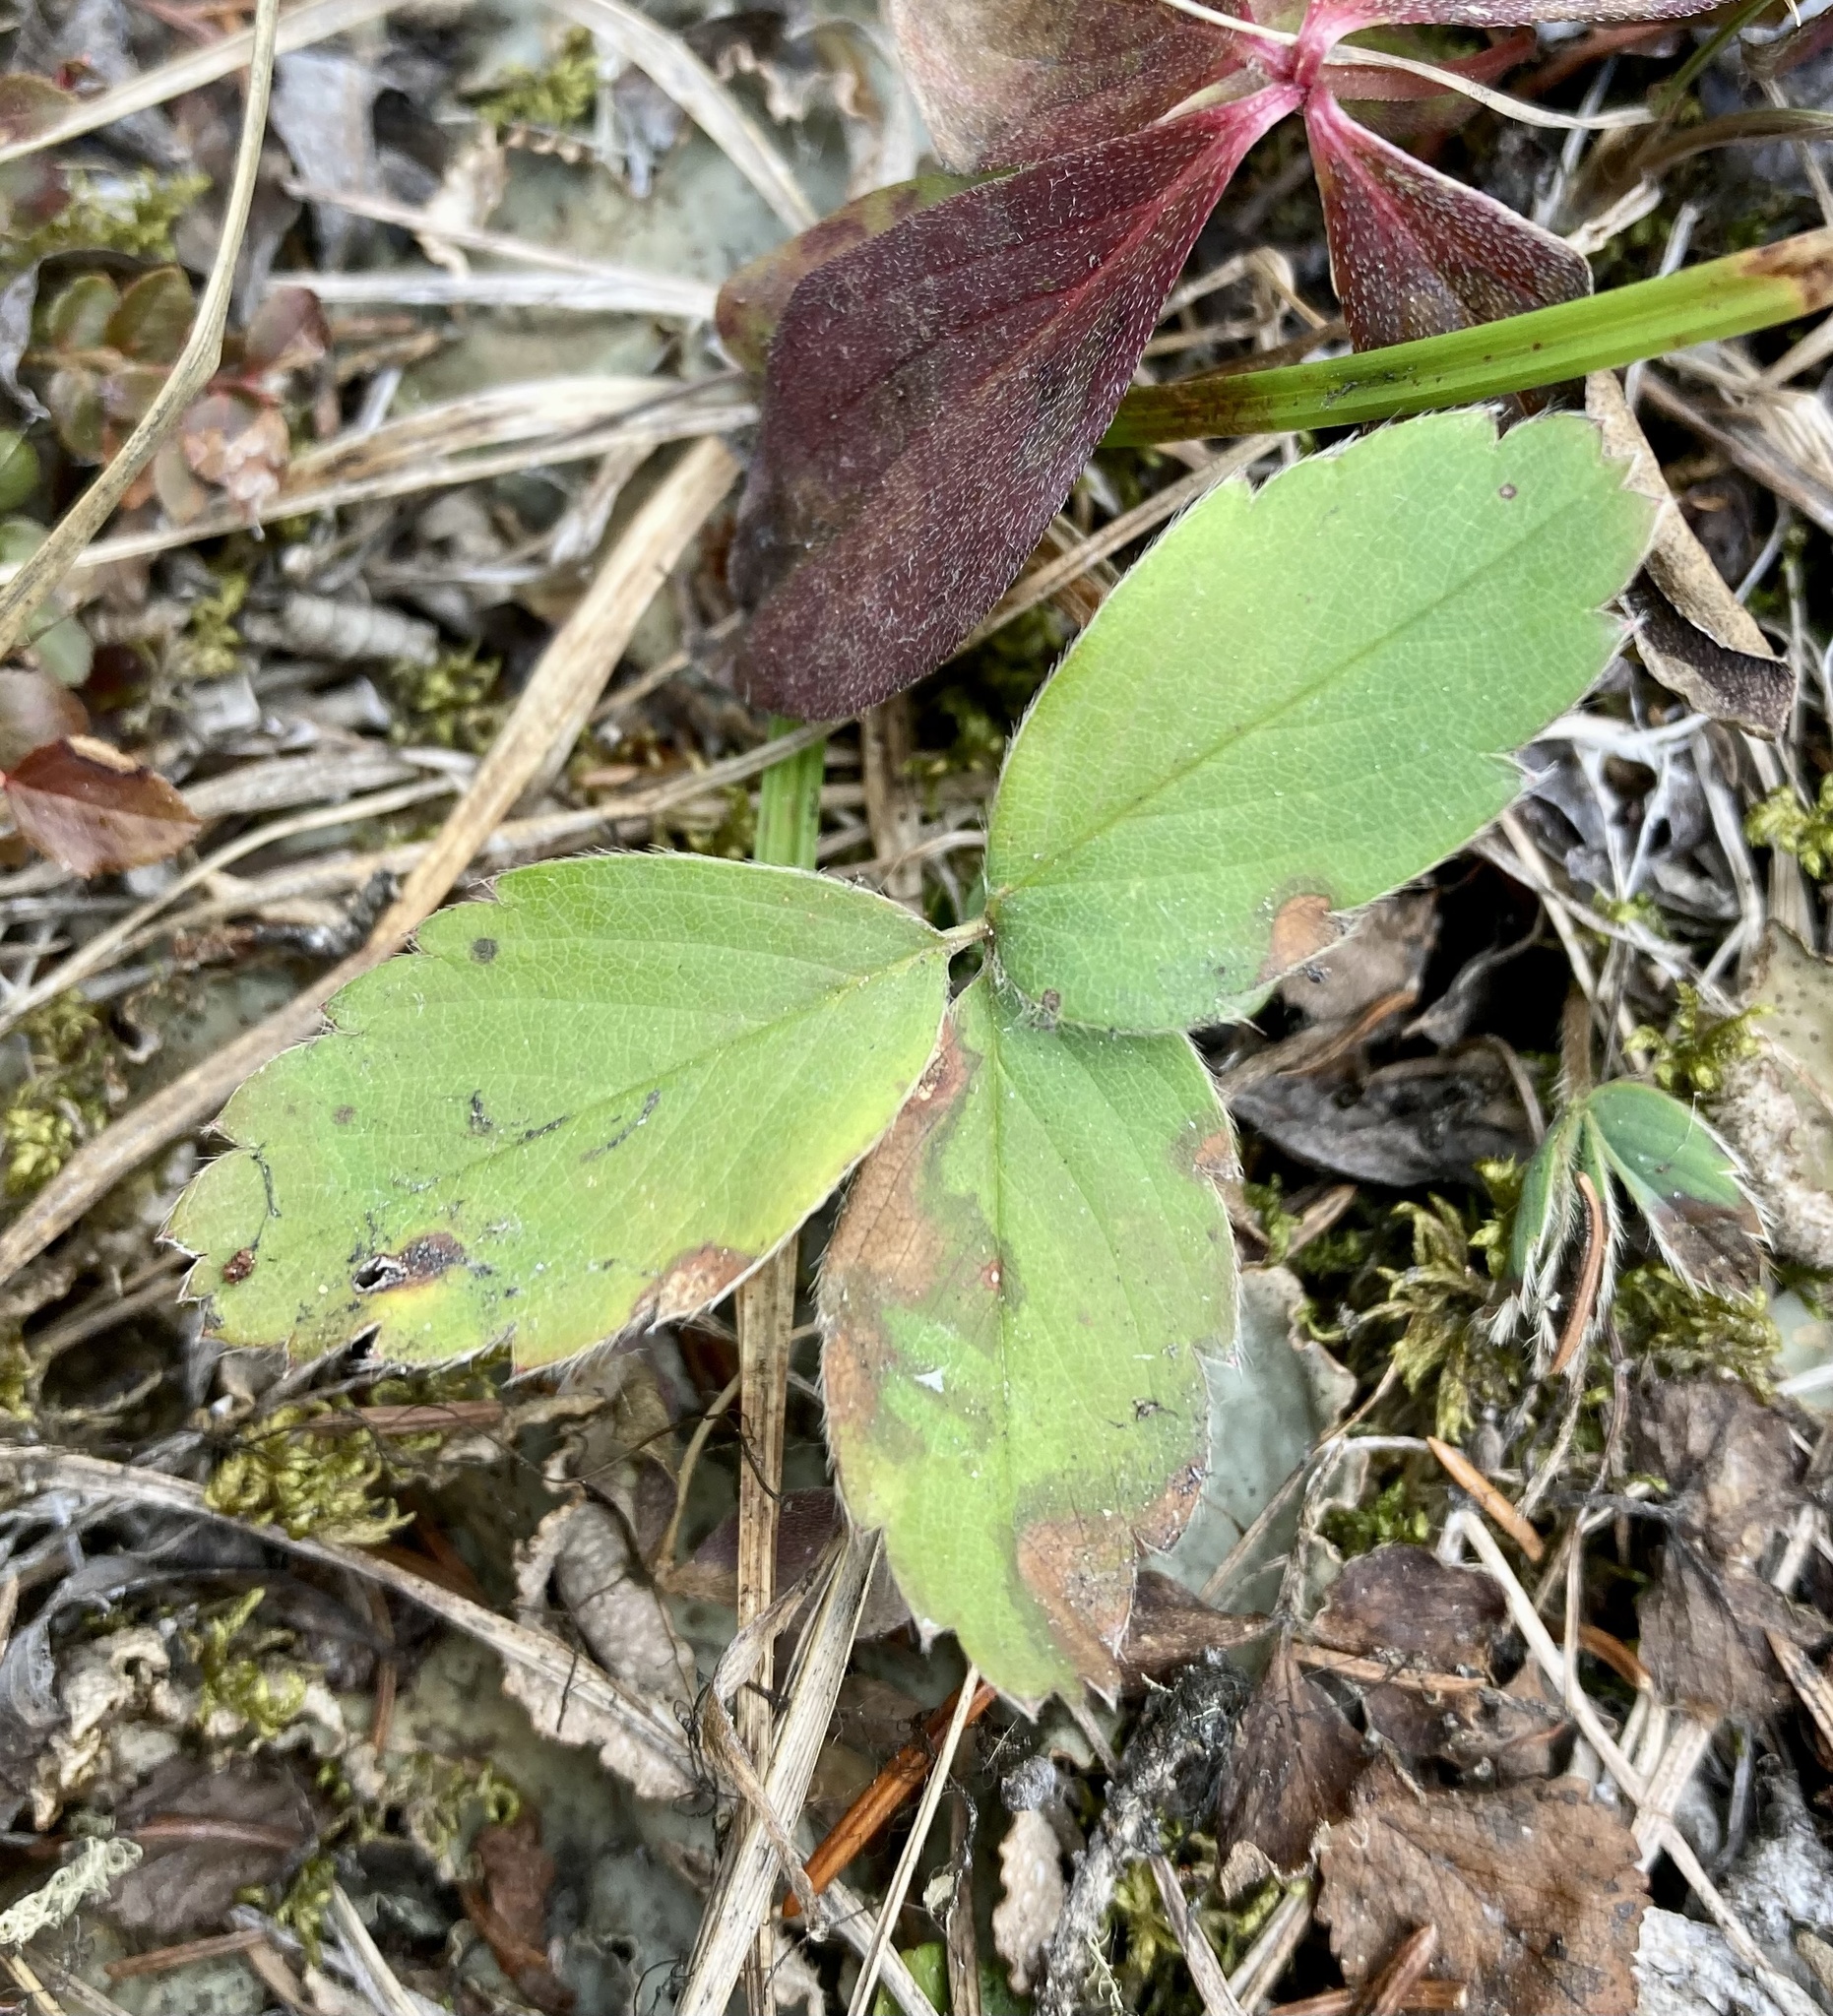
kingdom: Plantae
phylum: Tracheophyta
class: Magnoliopsida
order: Rosales
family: Rosaceae
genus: Fragaria
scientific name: Fragaria virginiana
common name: Thickleaved wild strawberry
